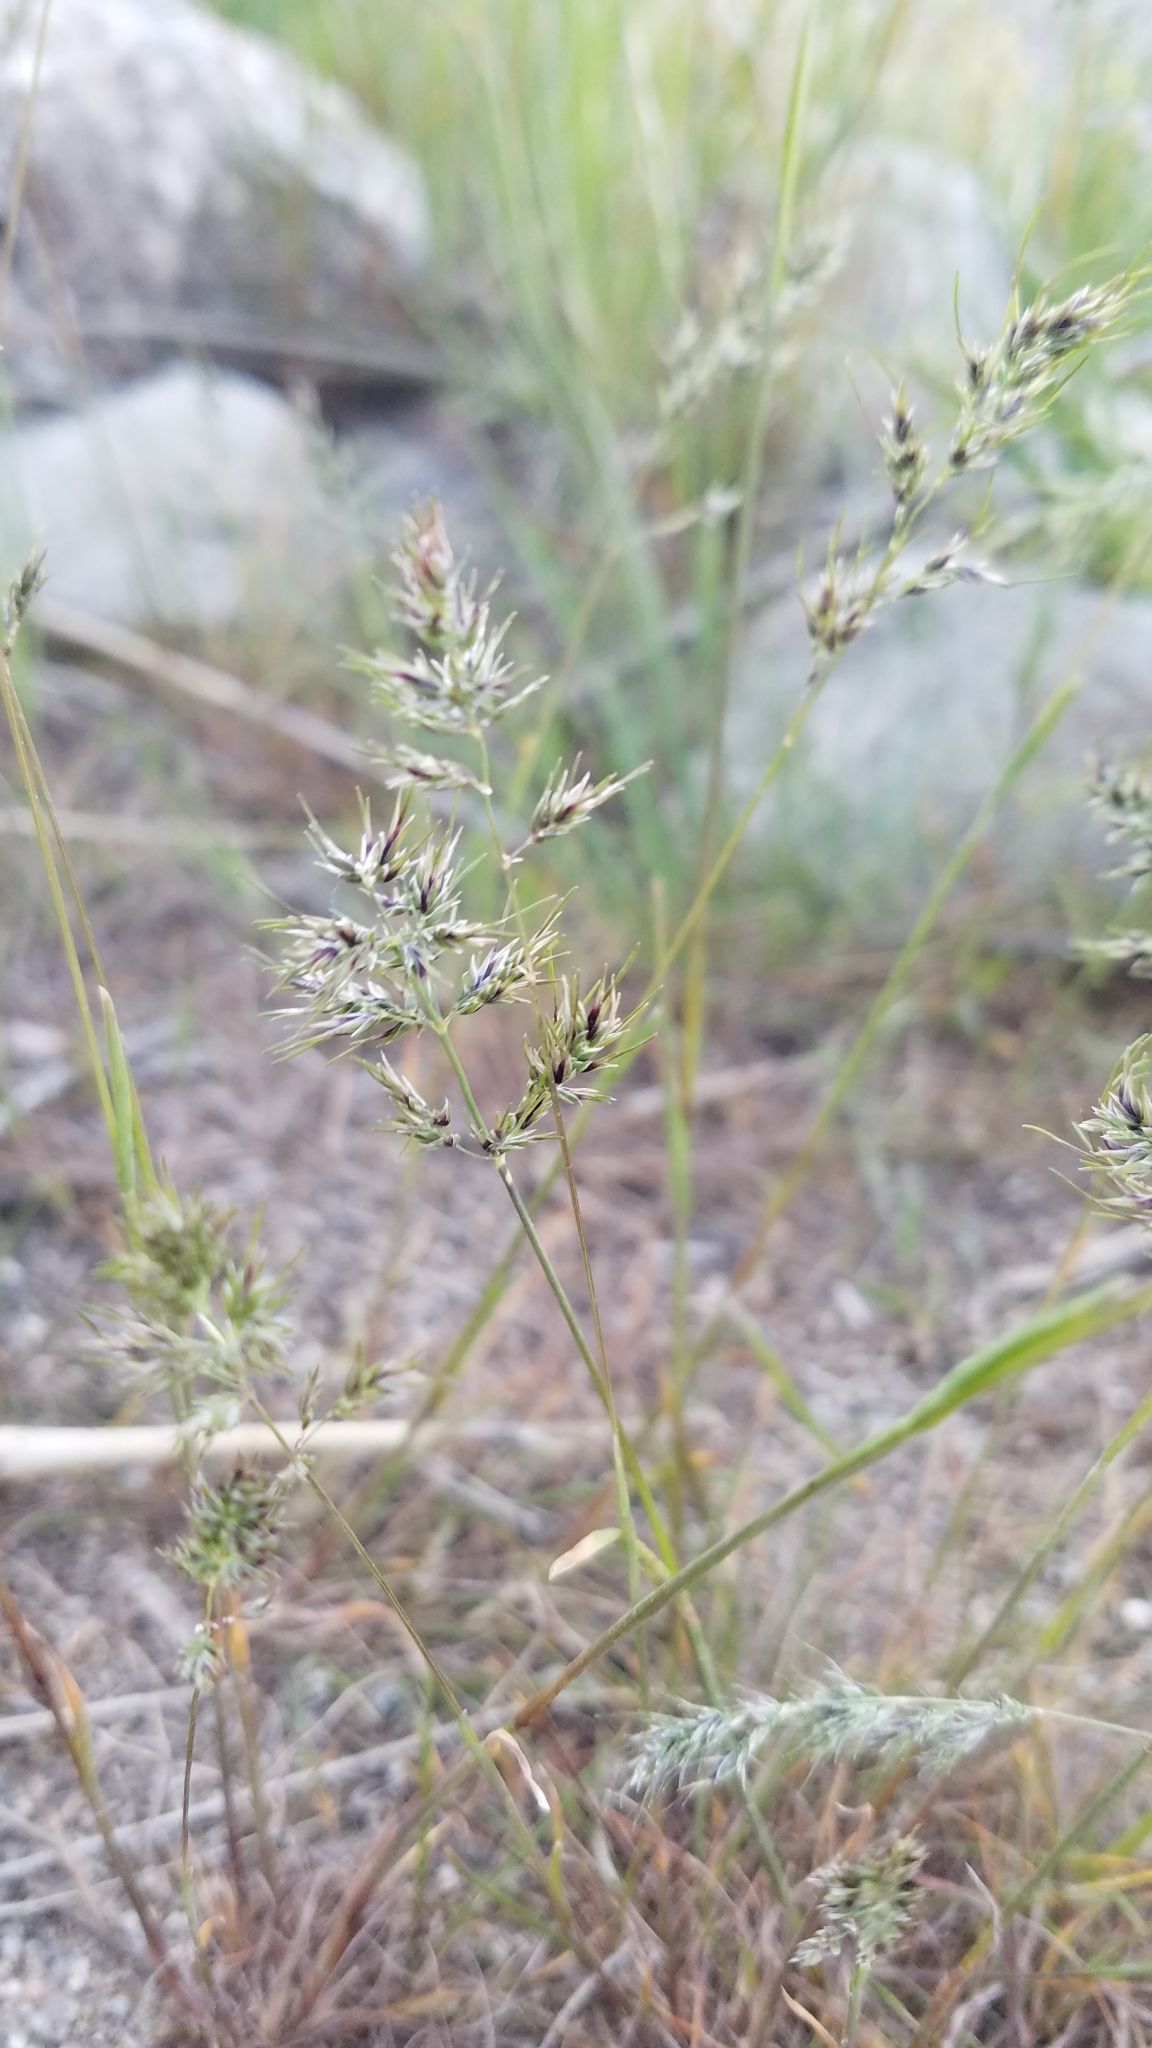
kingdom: Plantae
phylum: Tracheophyta
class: Liliopsida
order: Poales
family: Poaceae
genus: Poa
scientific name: Poa bulbosa
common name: Bulbous bluegrass
